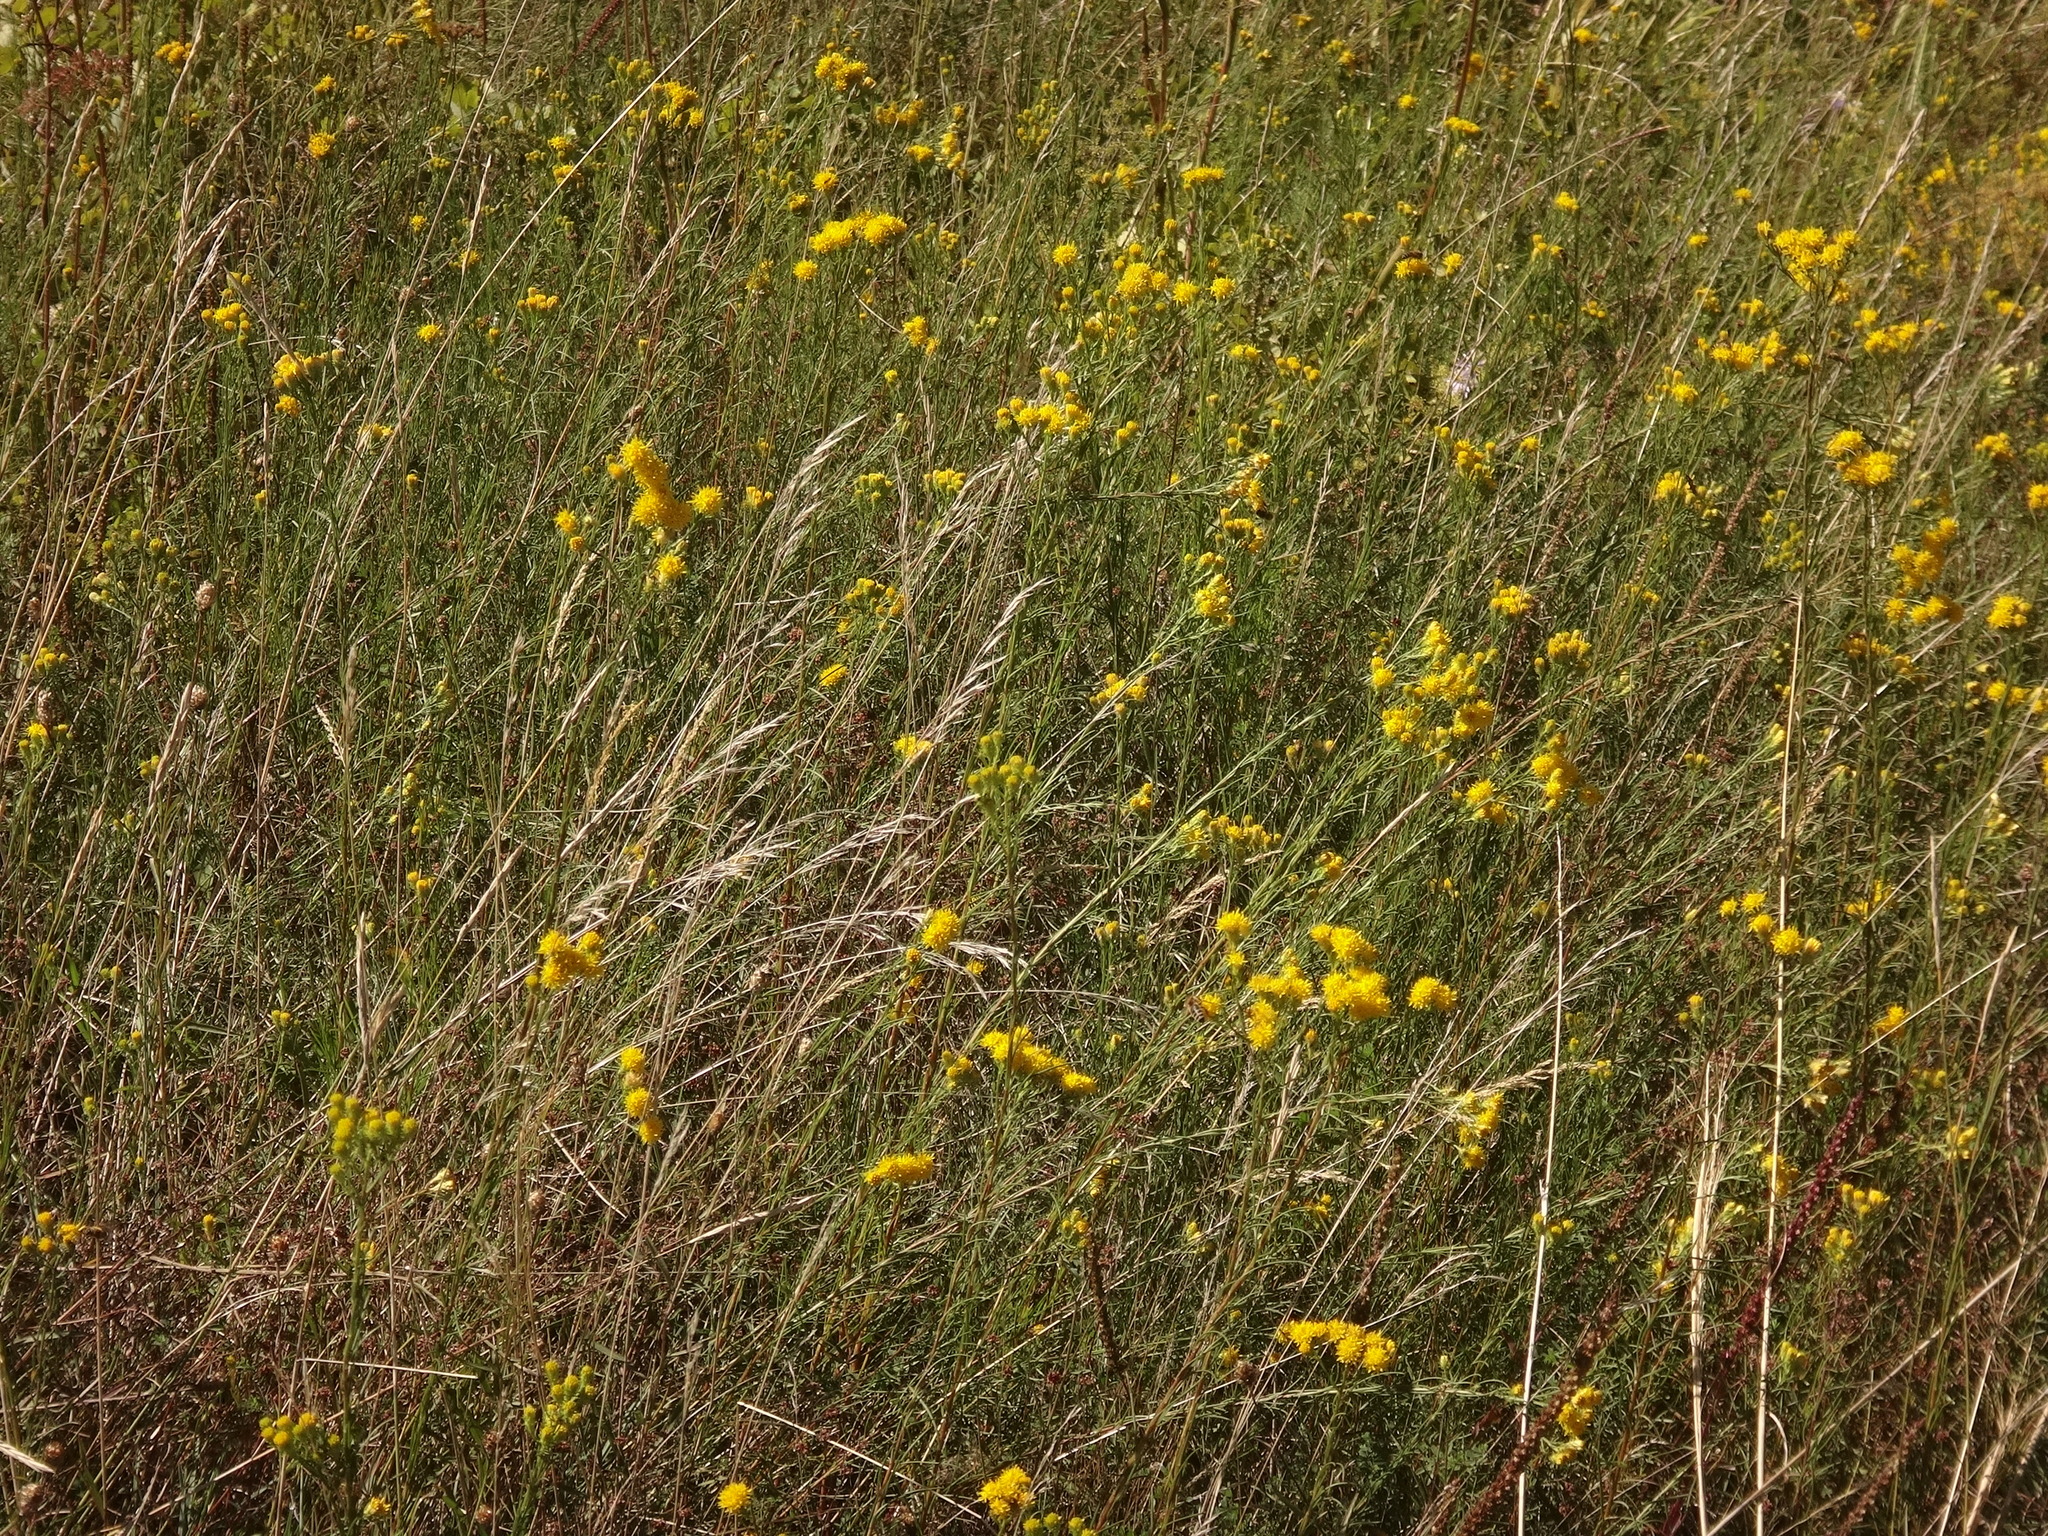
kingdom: Plantae
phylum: Tracheophyta
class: Magnoliopsida
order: Asterales
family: Asteraceae
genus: Galatella
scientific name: Galatella linosyris
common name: Goldilocks aster
